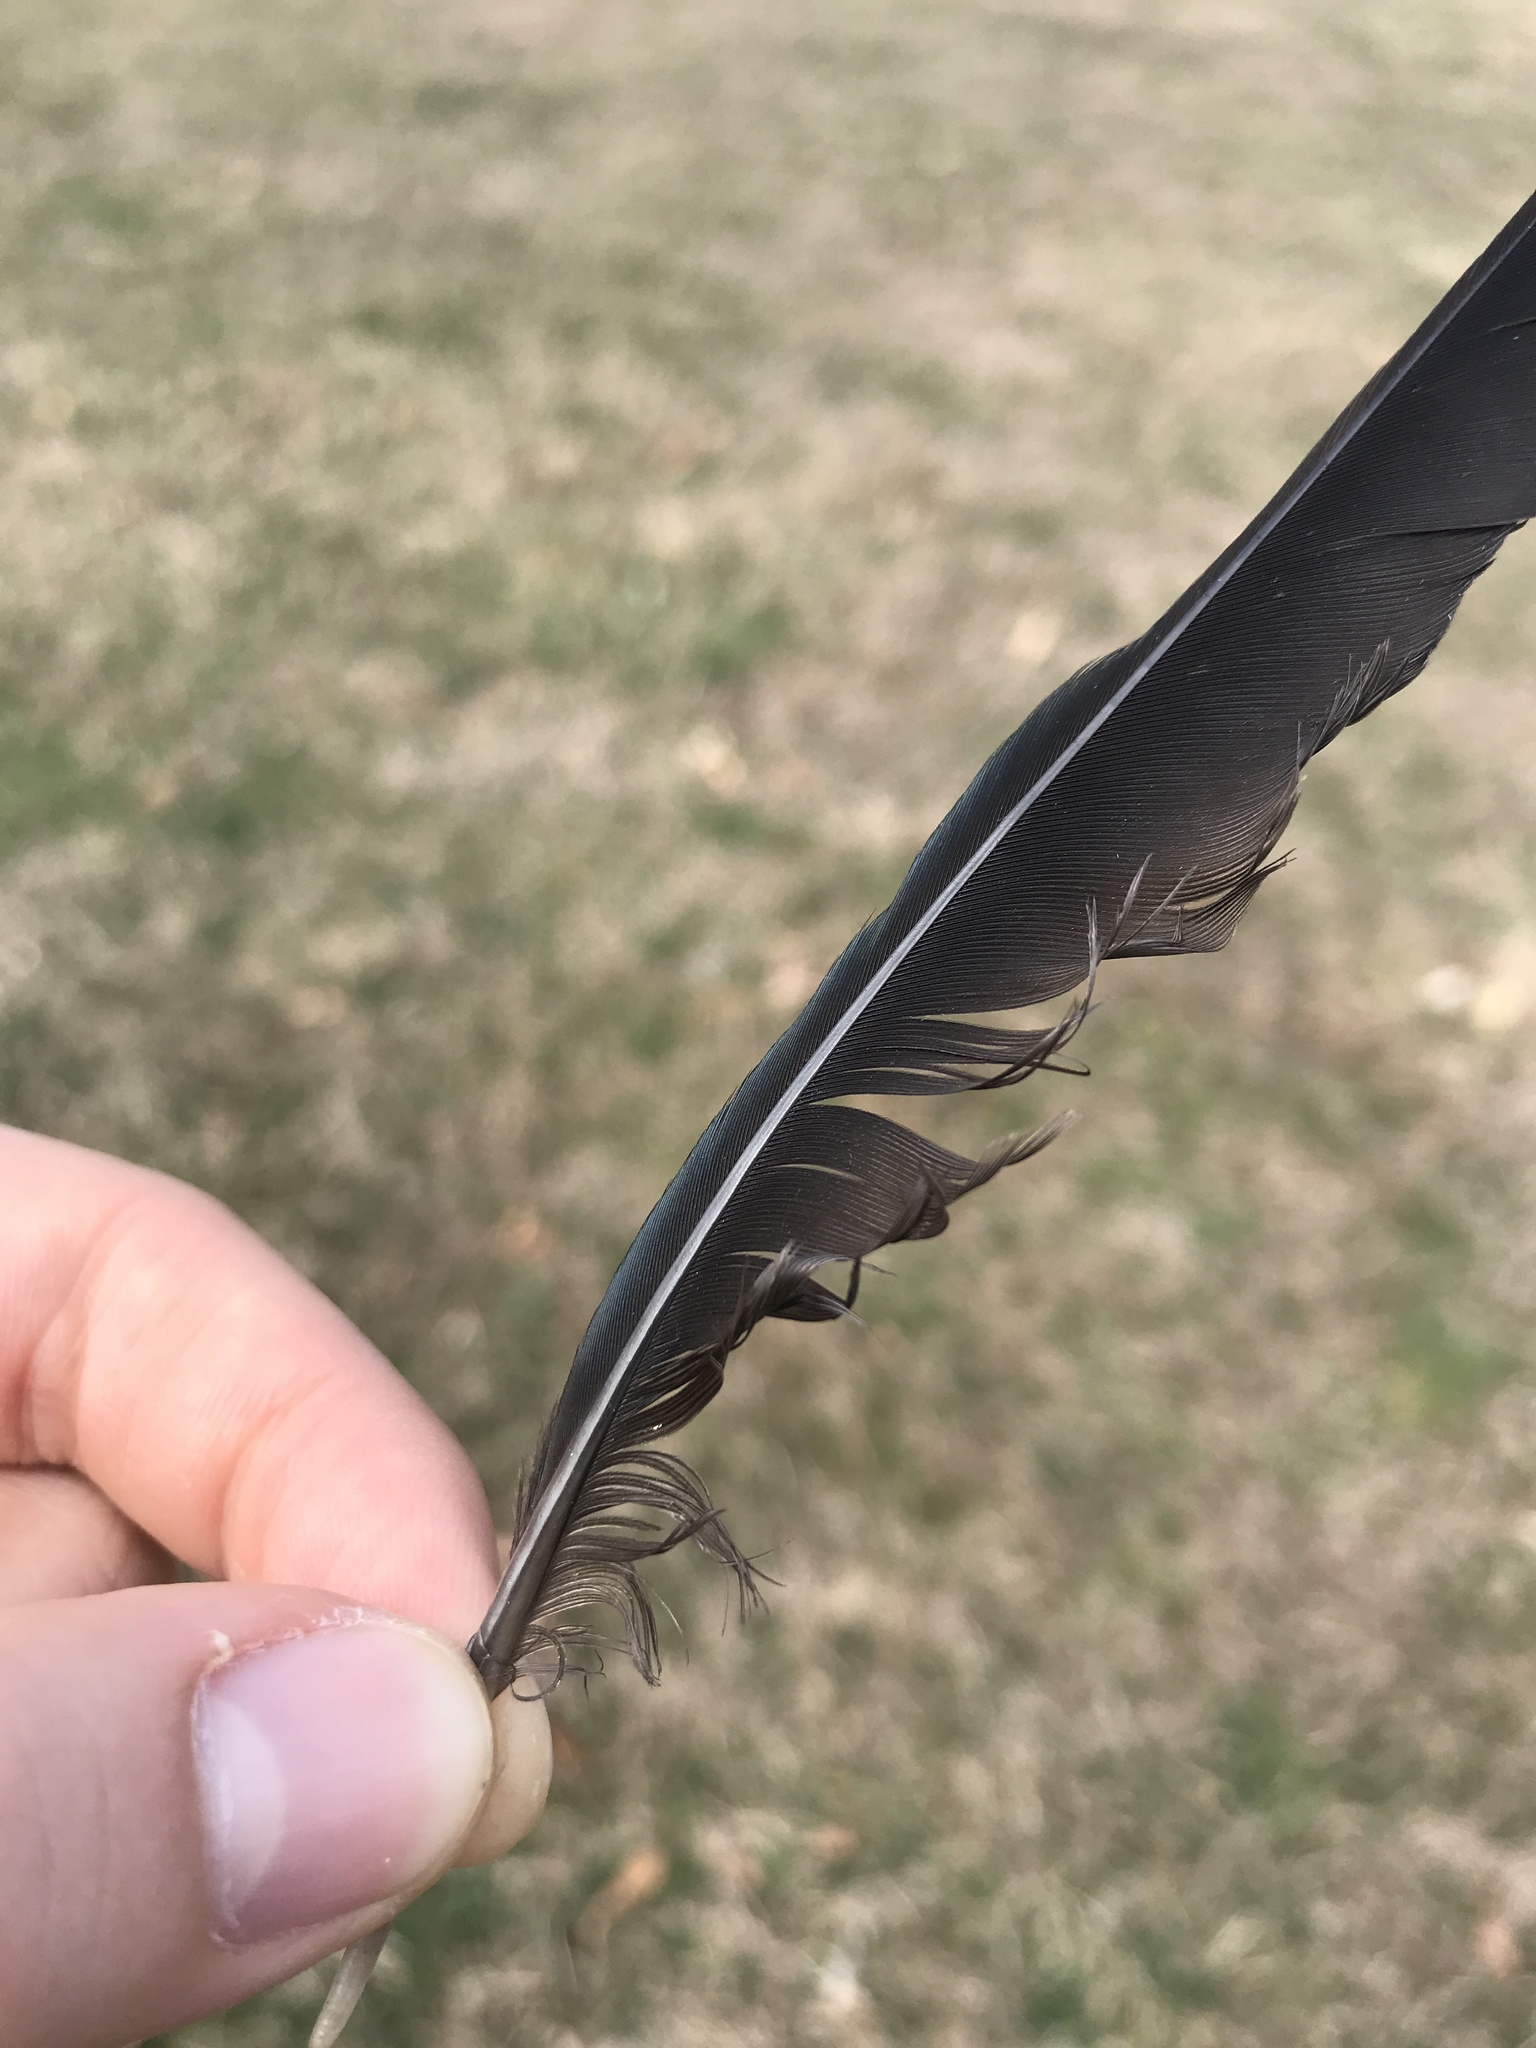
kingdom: Animalia
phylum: Chordata
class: Aves
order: Passeriformes
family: Icteridae
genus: Quiscalus
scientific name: Quiscalus quiscula
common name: Common grackle
